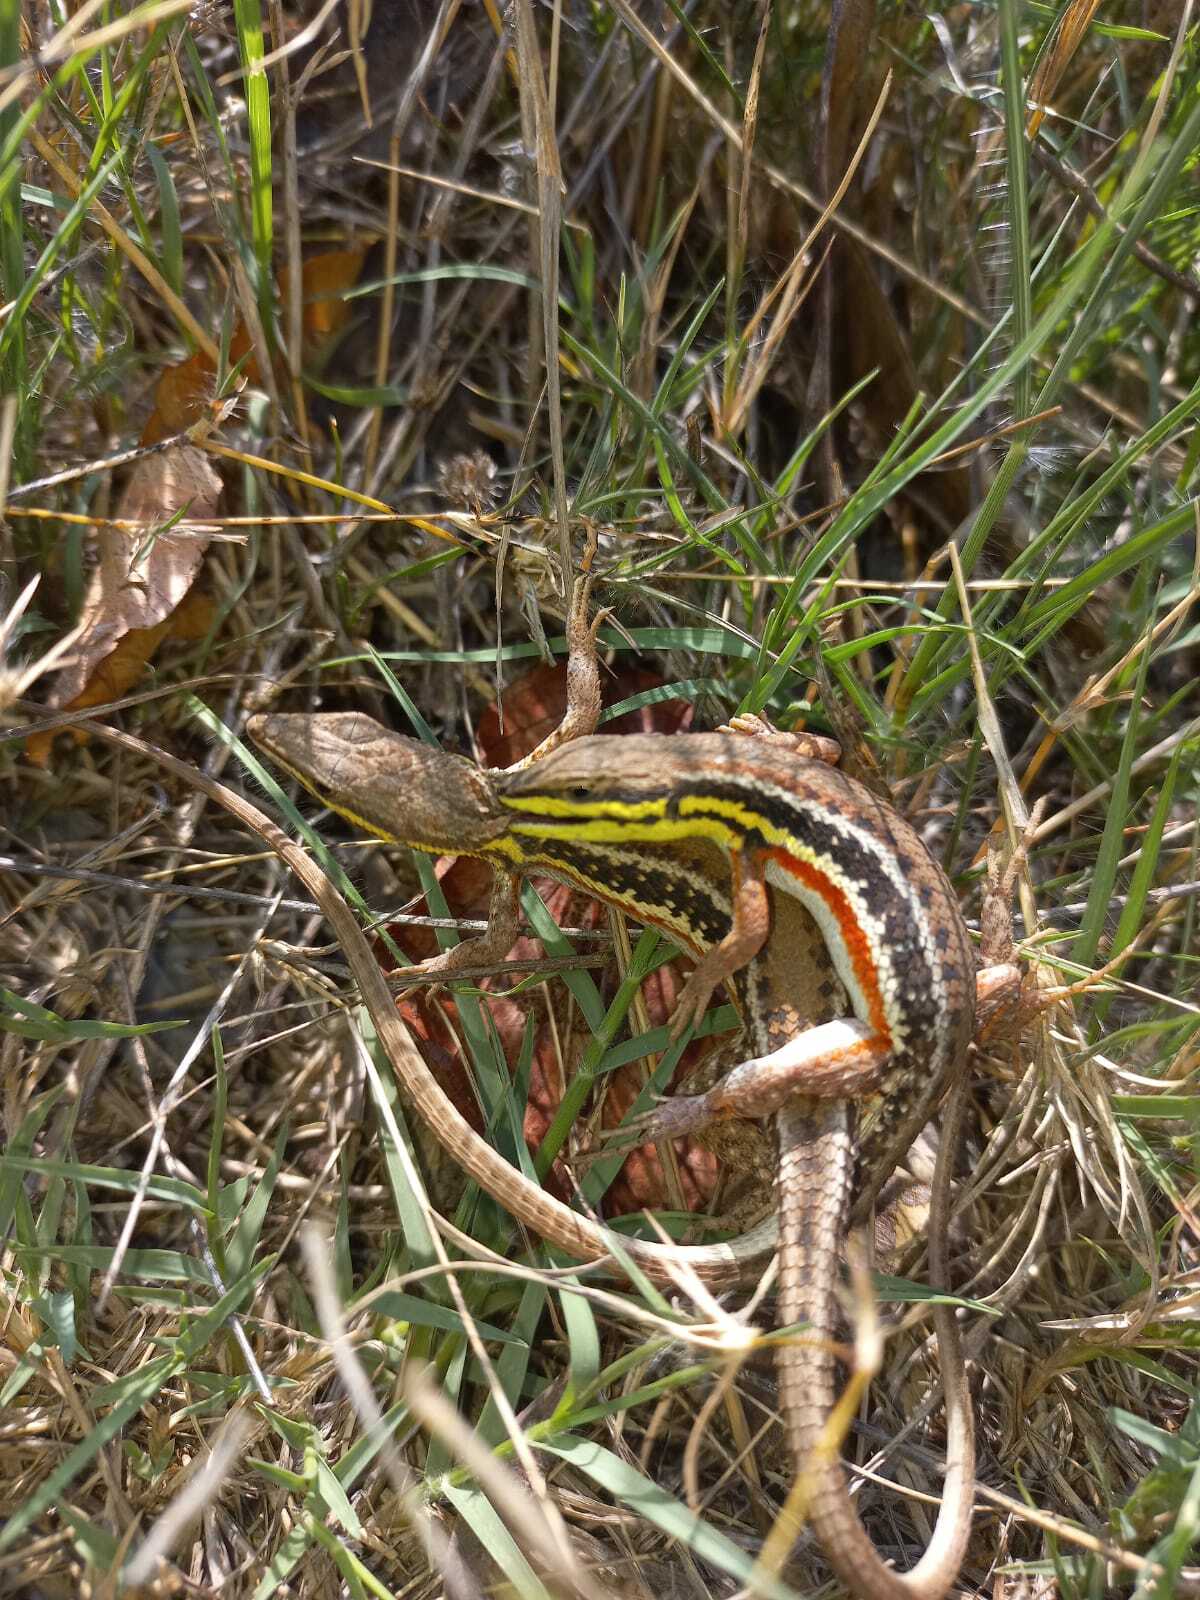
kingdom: Animalia
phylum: Chordata
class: Squamata
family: Lacertidae
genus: Ichnotropis
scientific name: Ichnotropis capensis
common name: Cape rough-scaled lizard
